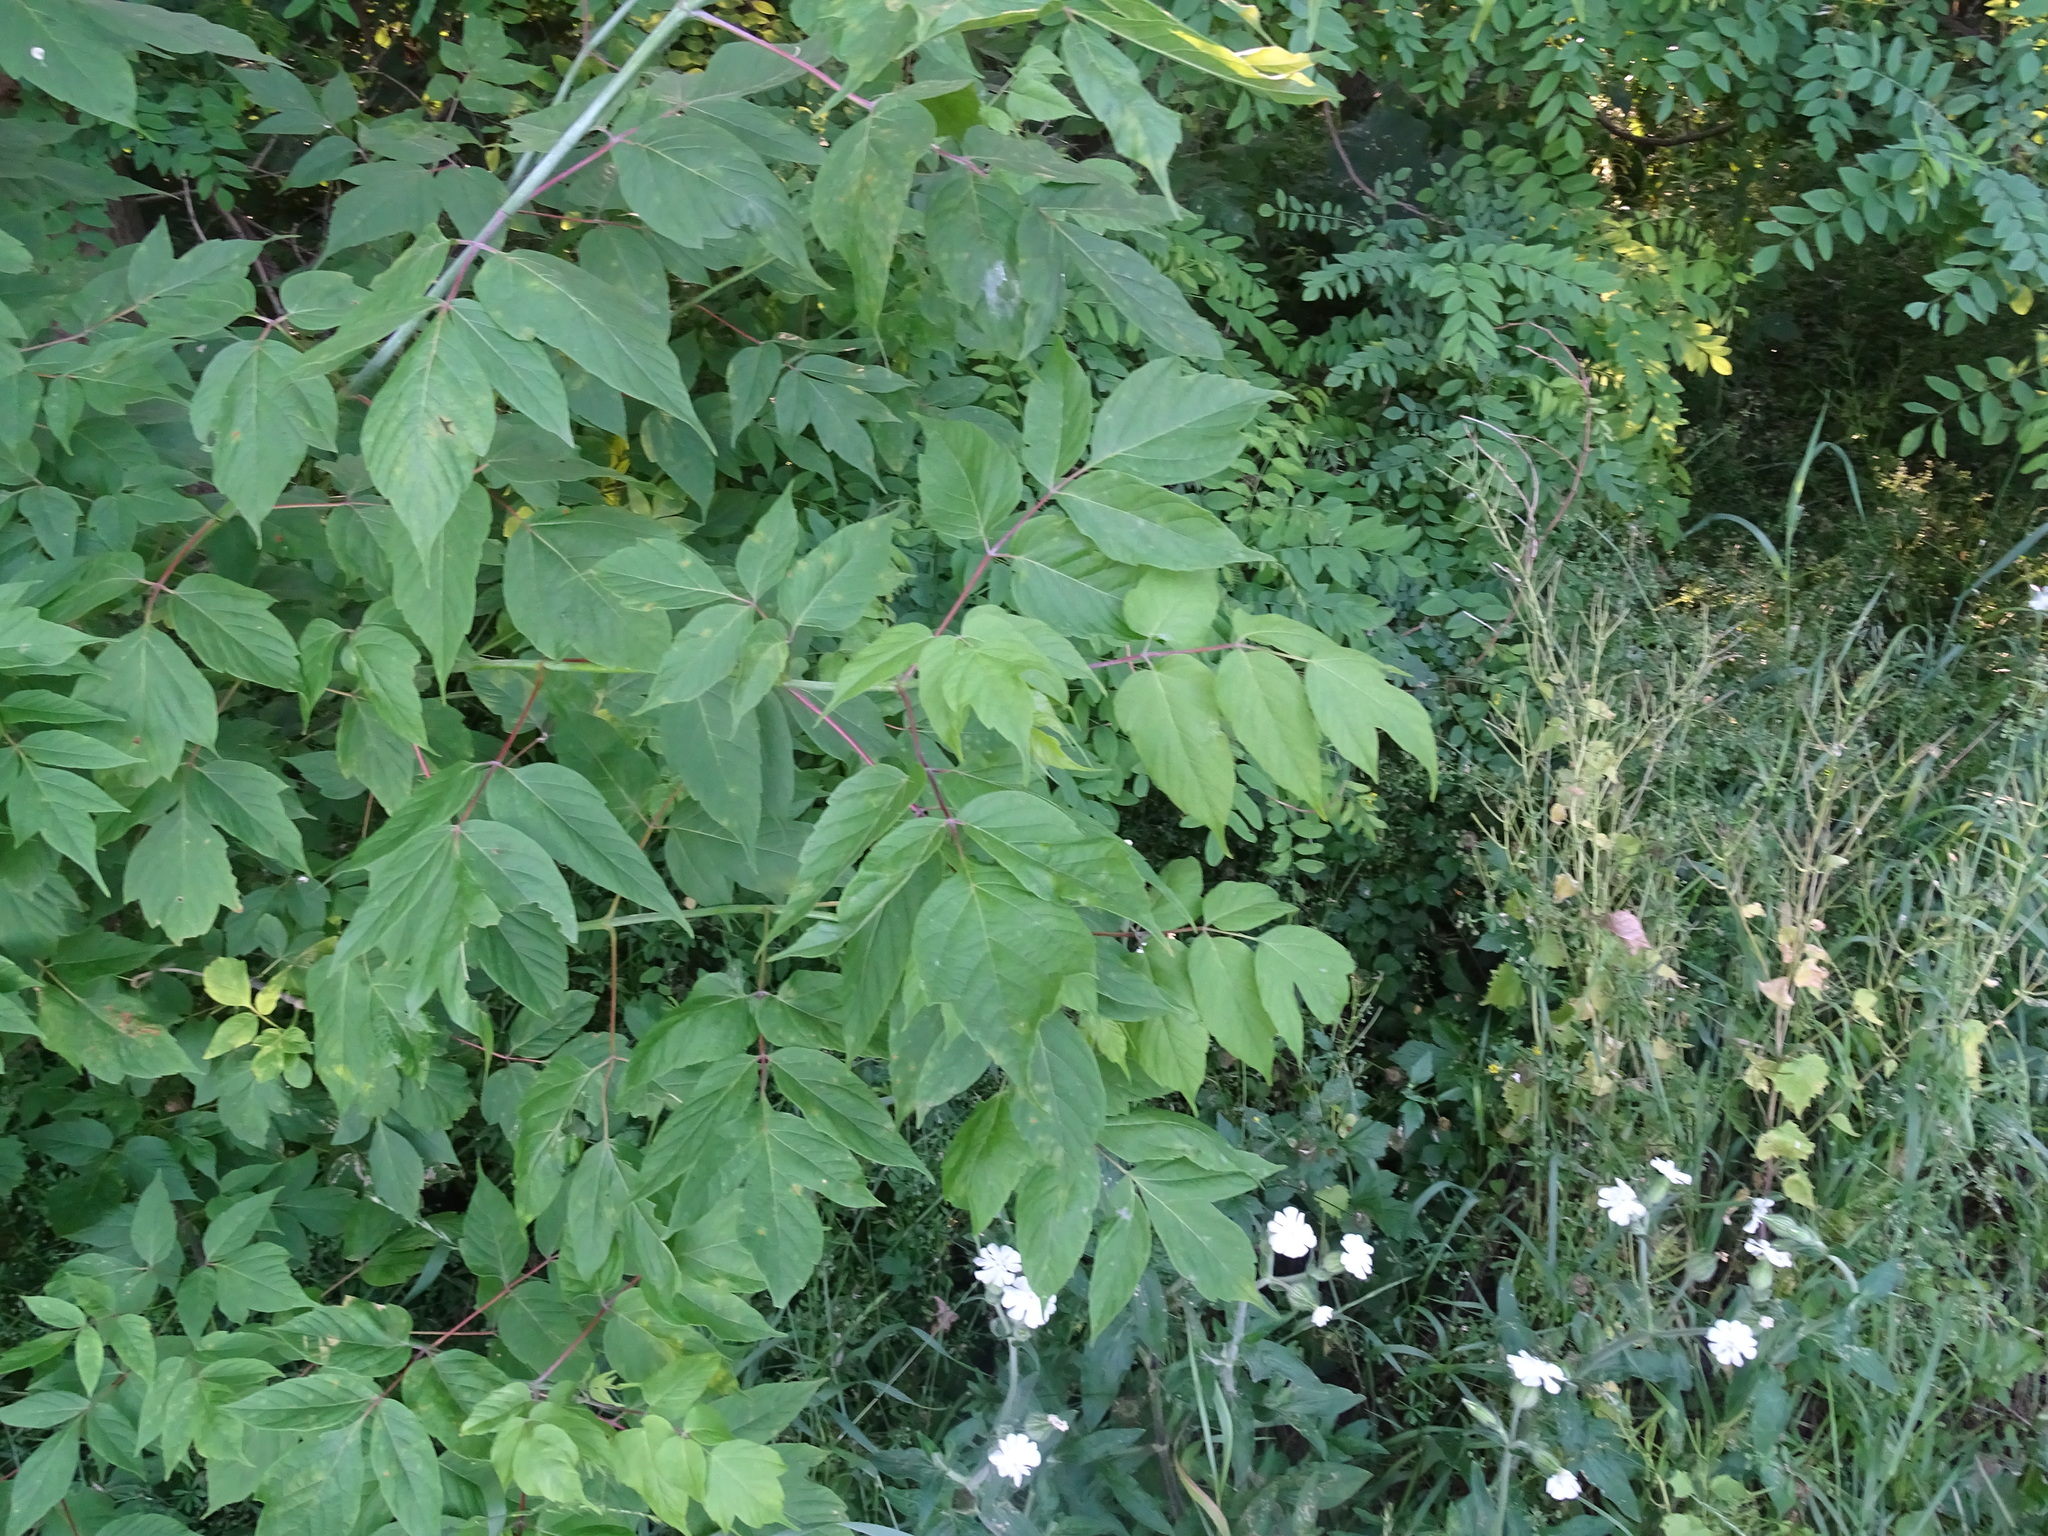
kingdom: Plantae
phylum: Tracheophyta
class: Magnoliopsida
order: Sapindales
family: Sapindaceae
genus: Acer
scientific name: Acer negundo
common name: Ashleaf maple
